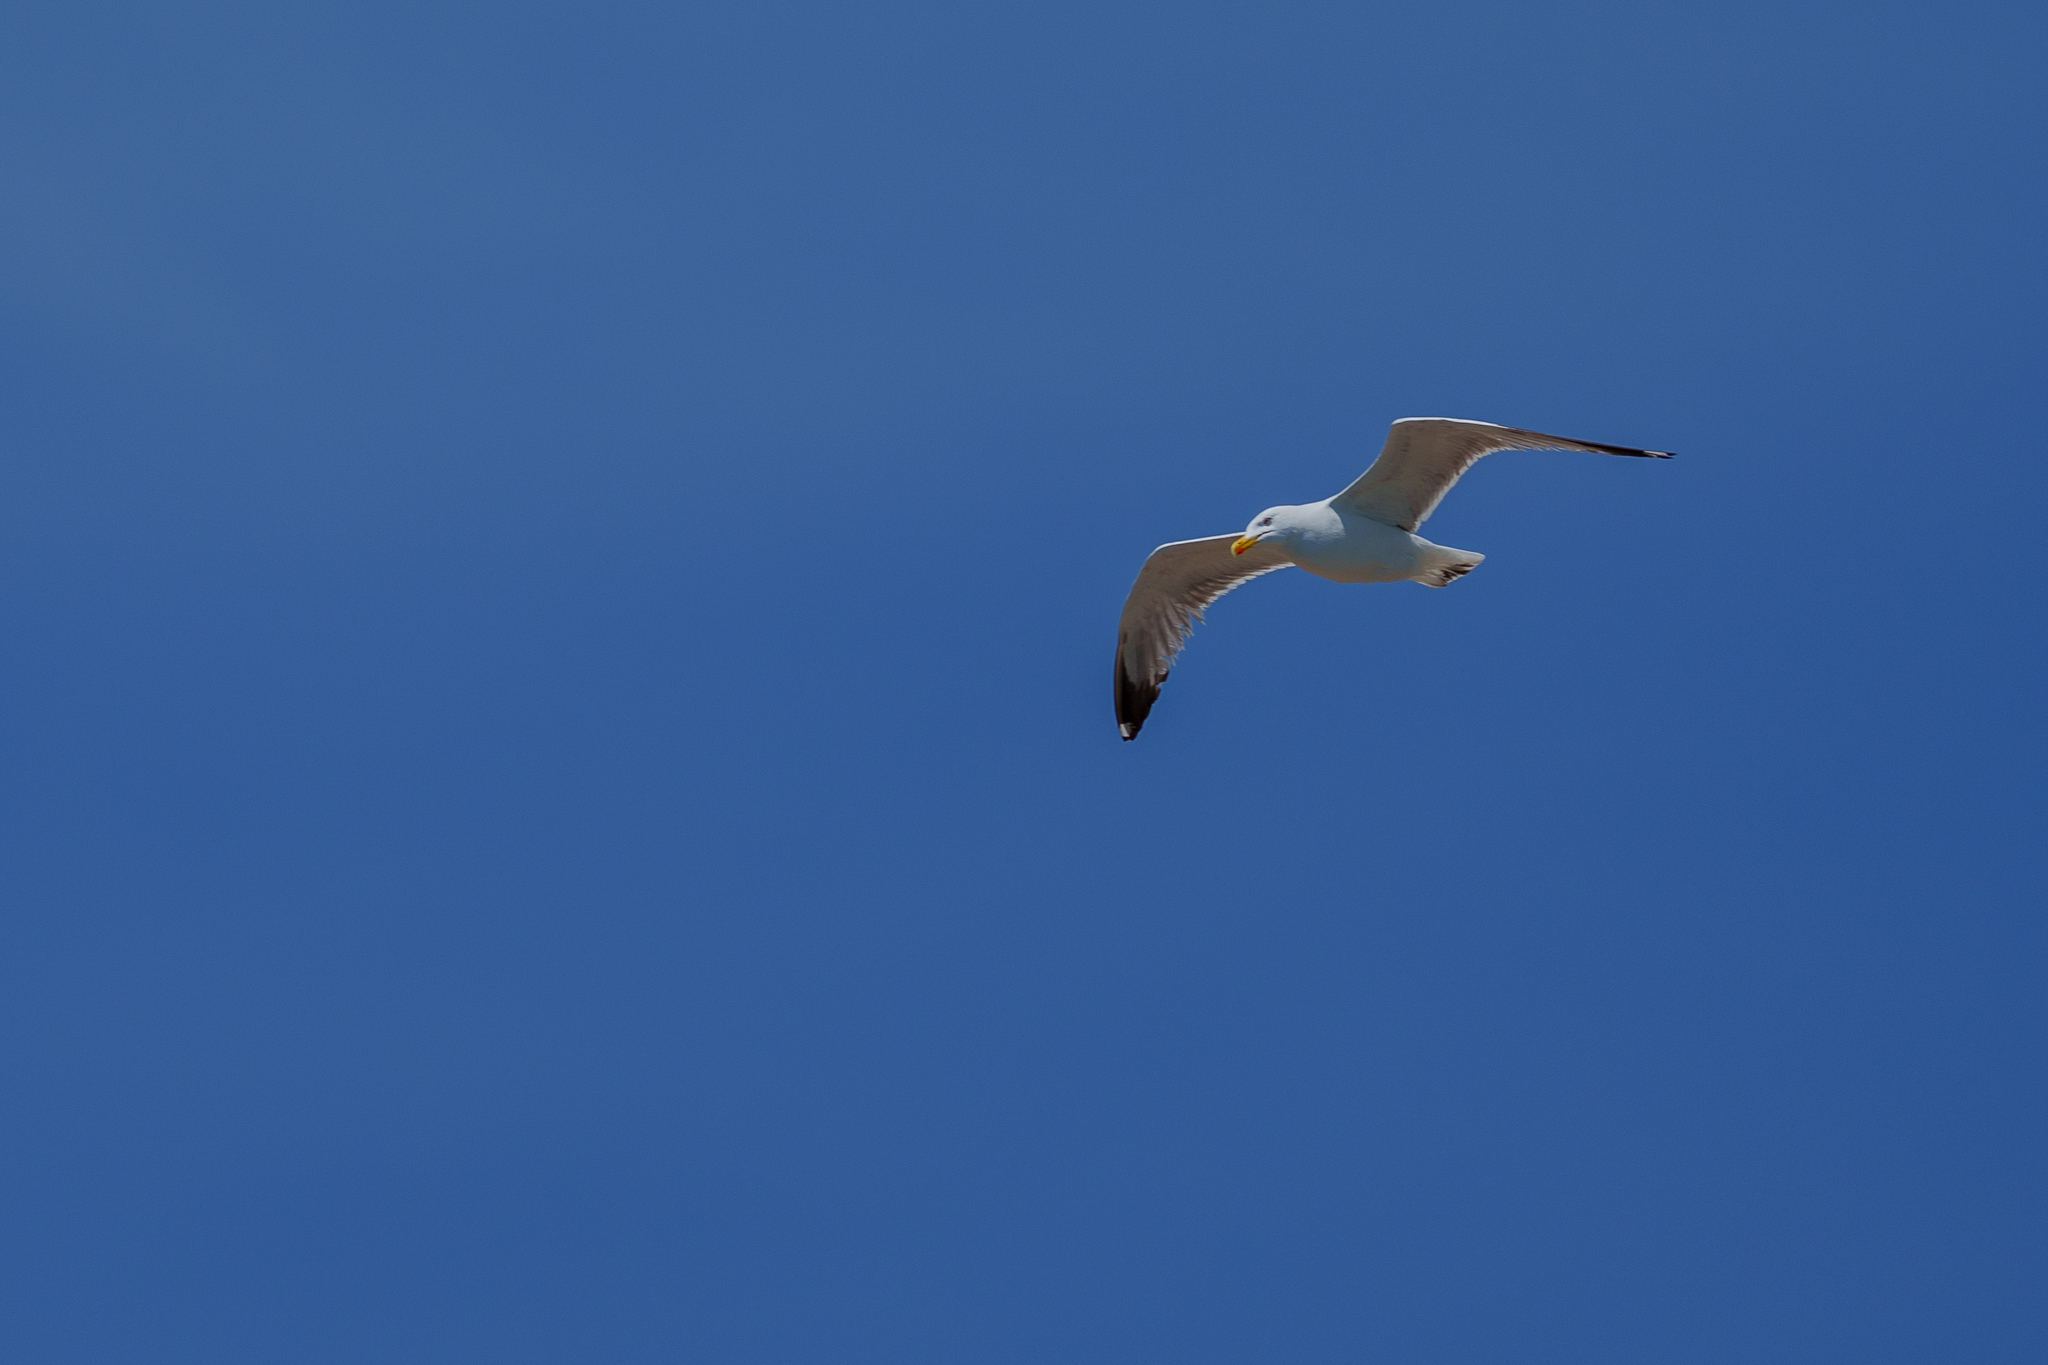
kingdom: Animalia
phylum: Chordata
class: Aves
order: Charadriiformes
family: Laridae
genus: Larus
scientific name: Larus michahellis
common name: Yellow-legged gull
